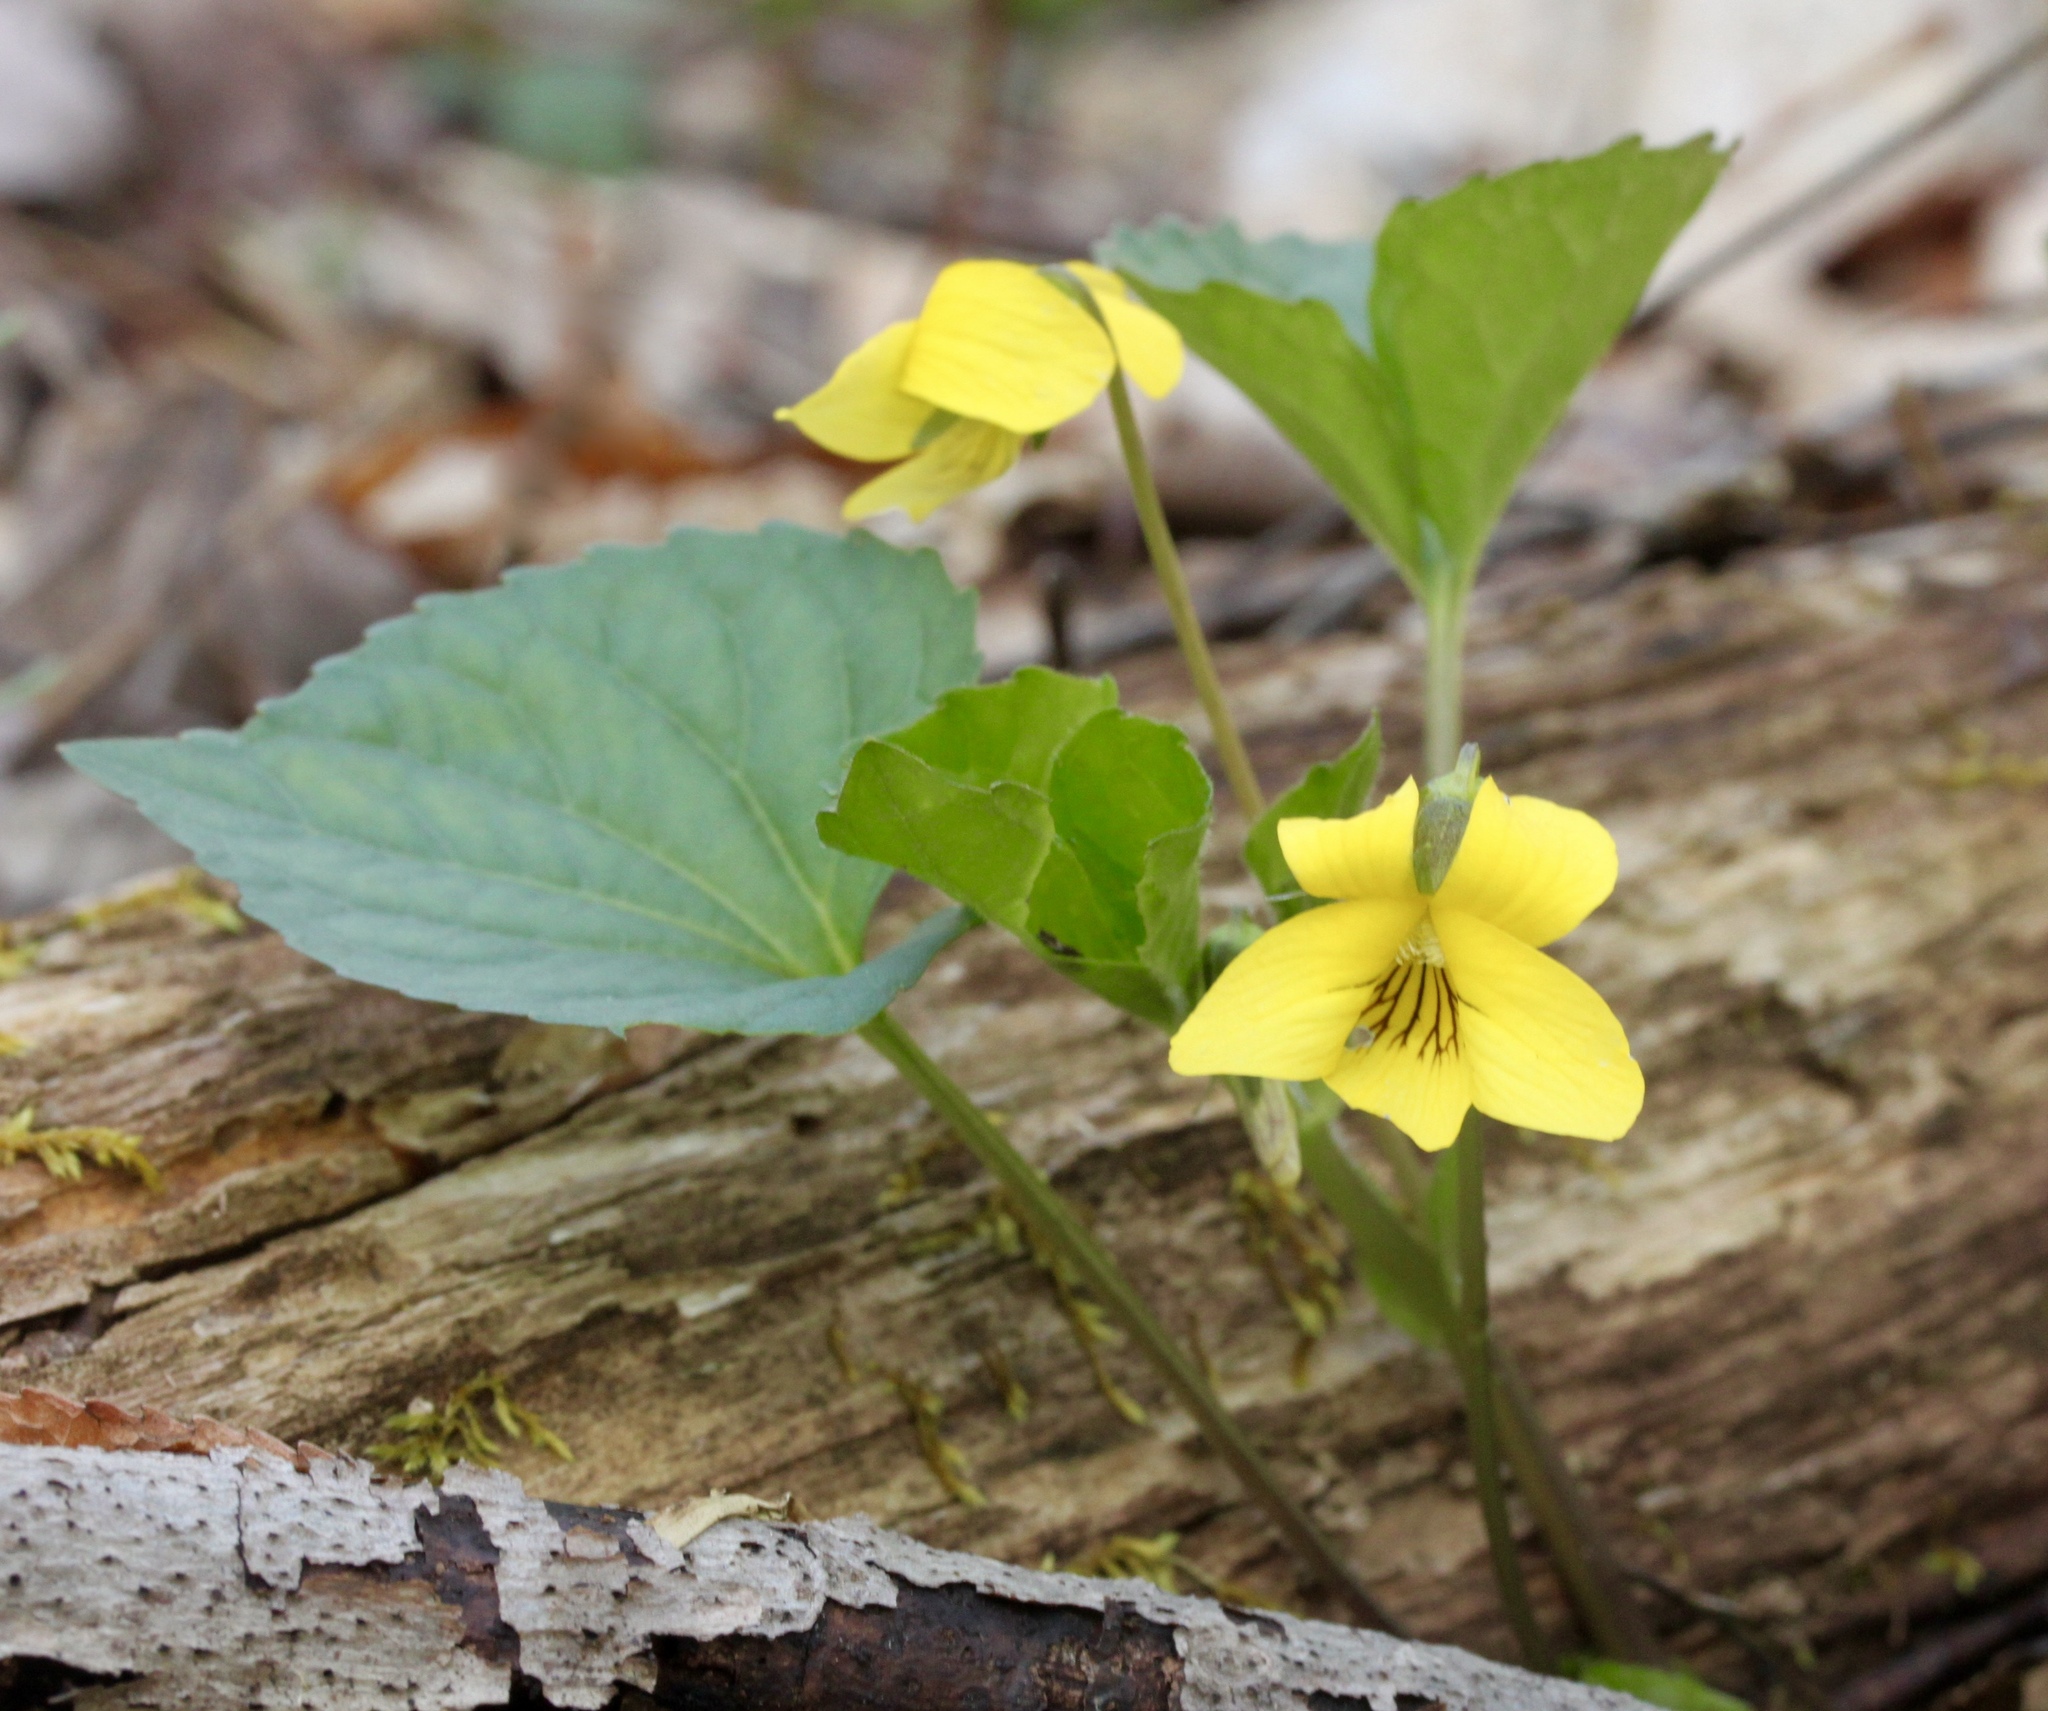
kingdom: Plantae
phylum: Tracheophyta
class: Magnoliopsida
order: Malpighiales
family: Violaceae
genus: Viola
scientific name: Viola eriocarpa
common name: Smooth yellow violet
